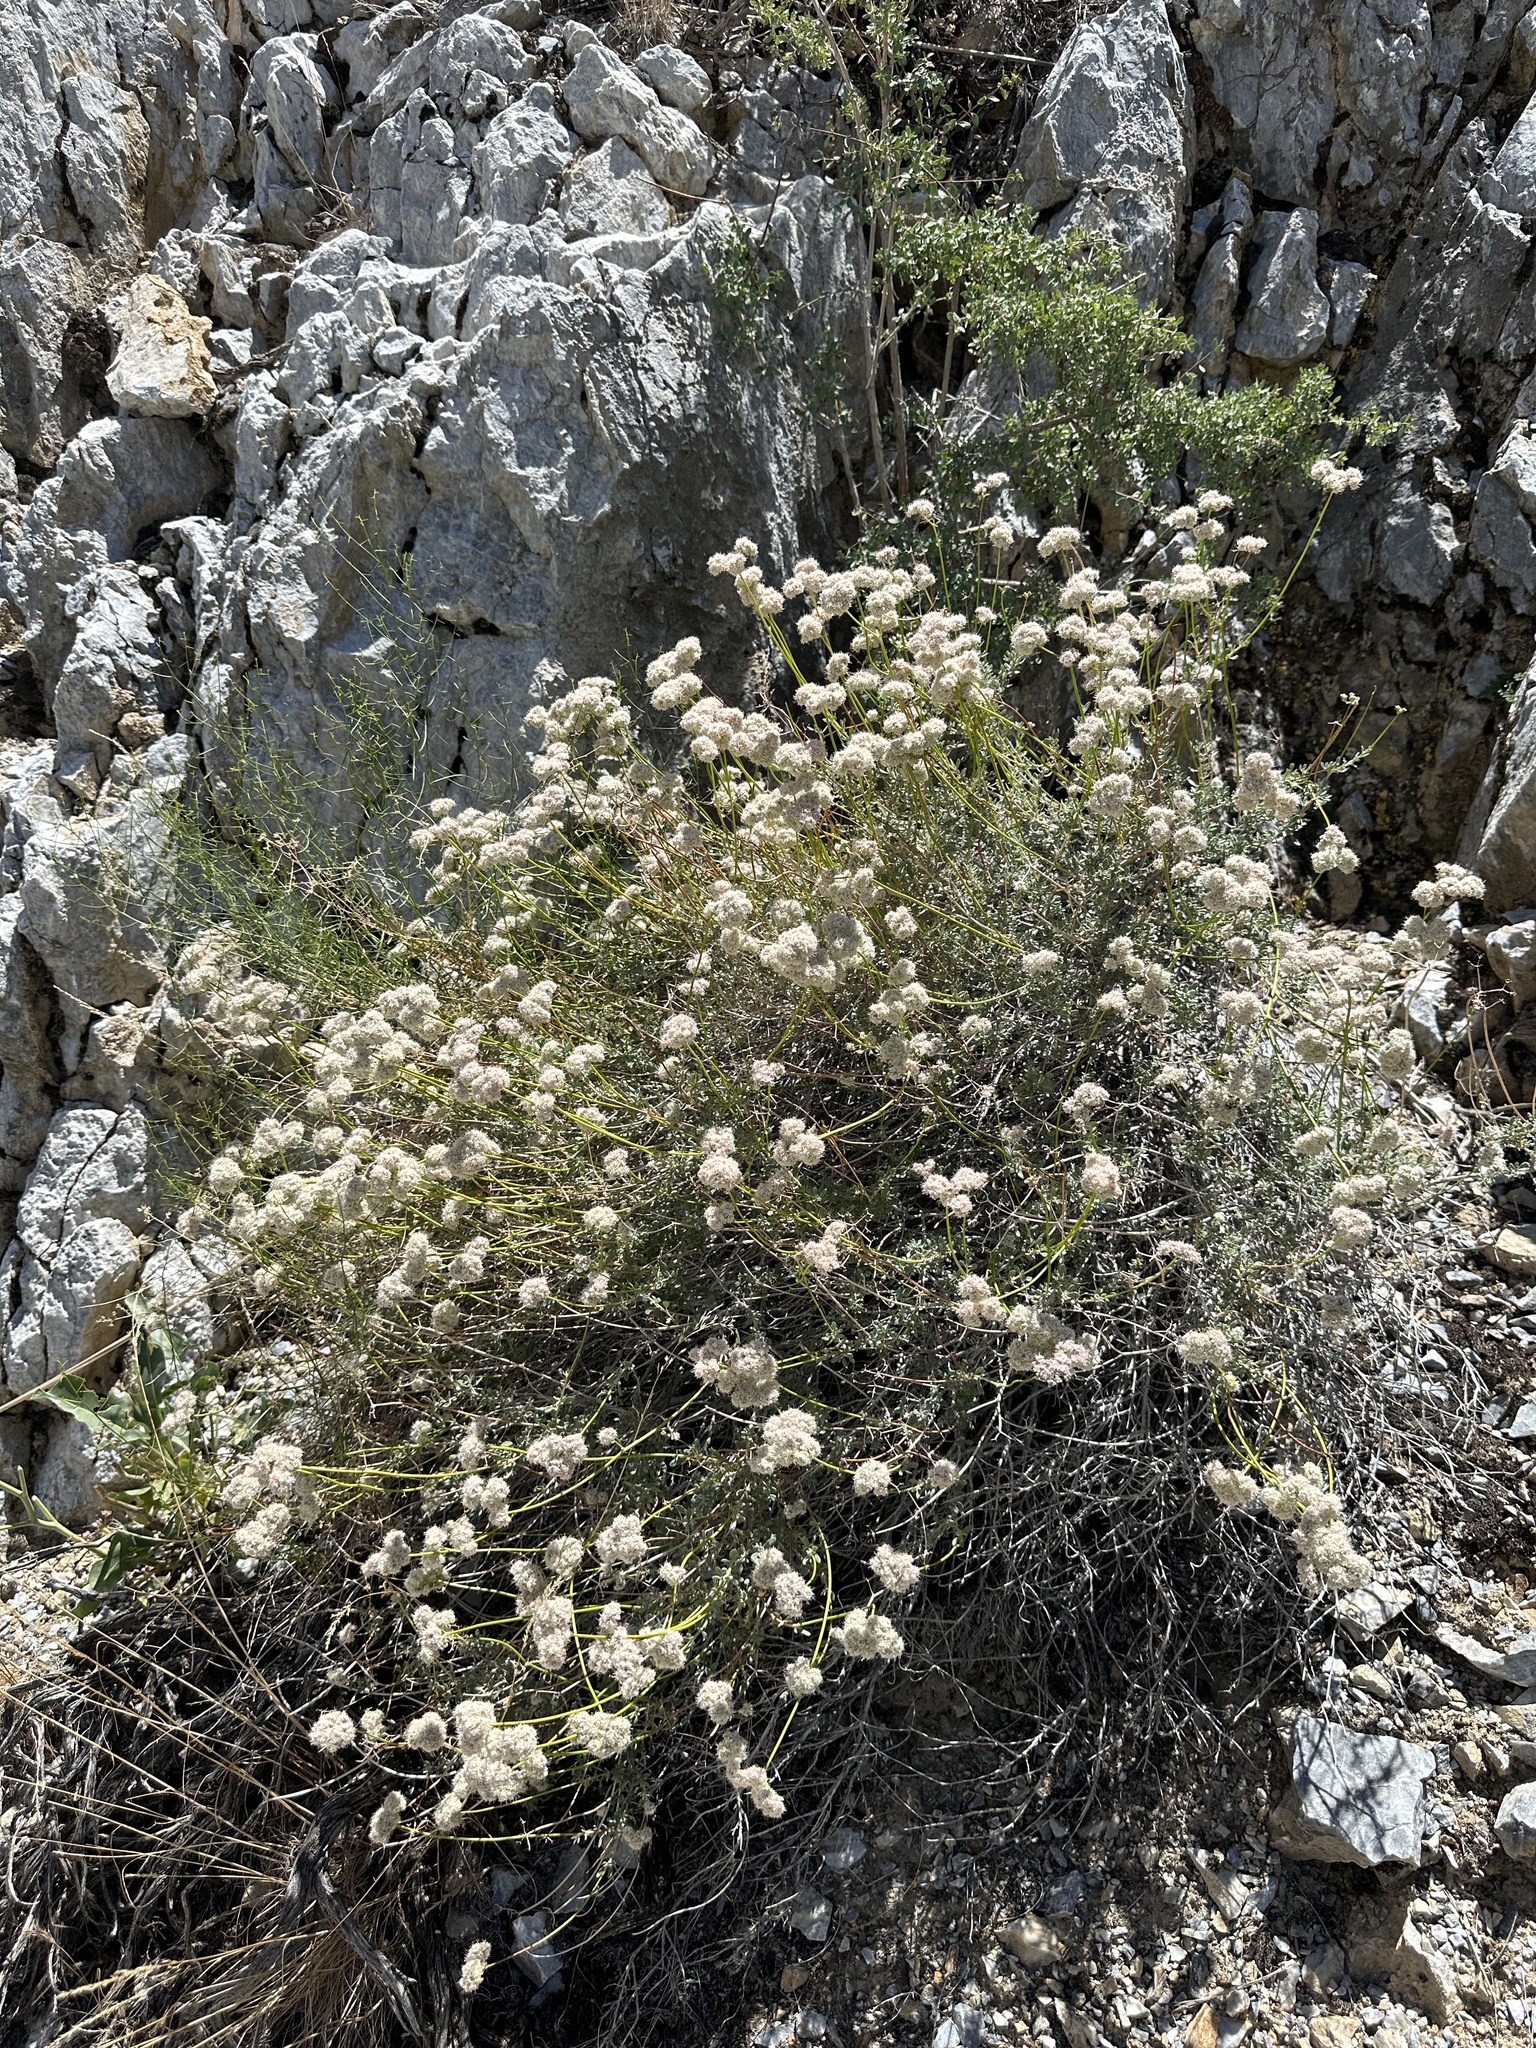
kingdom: Plantae
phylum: Tracheophyta
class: Magnoliopsida
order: Caryophyllales
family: Polygonaceae
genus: Eriogonum
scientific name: Eriogonum fasciculatum
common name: California wild buckwheat
